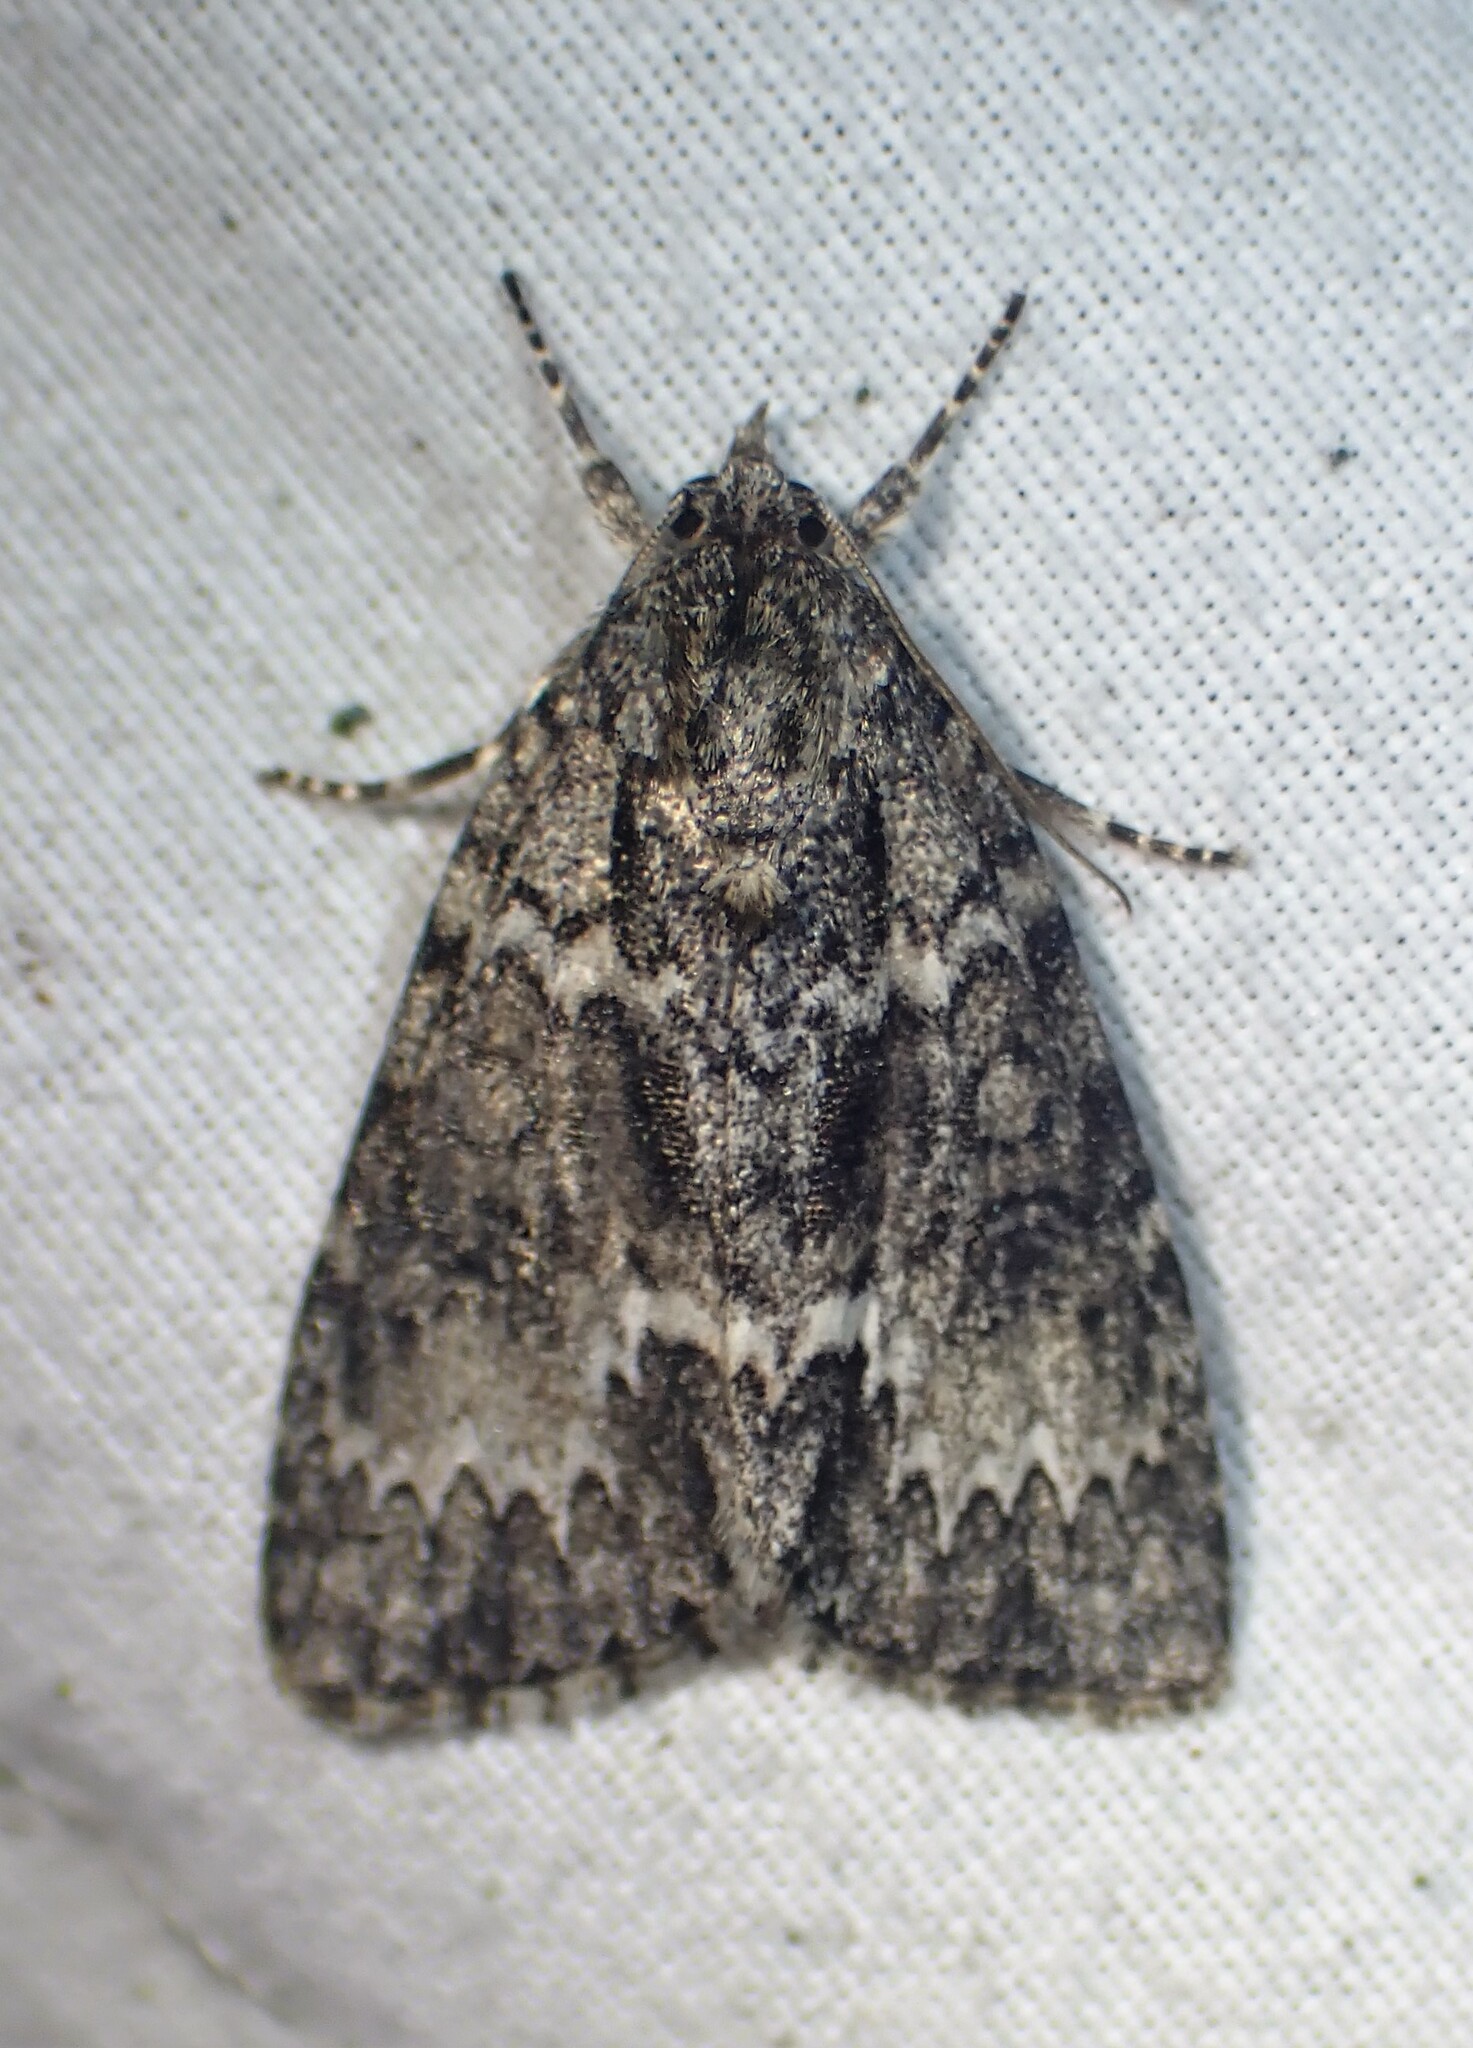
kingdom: Animalia
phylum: Arthropoda
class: Insecta
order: Lepidoptera
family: Noctuidae
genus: Acronicta
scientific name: Acronicta fragilis
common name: Fragile dagger
